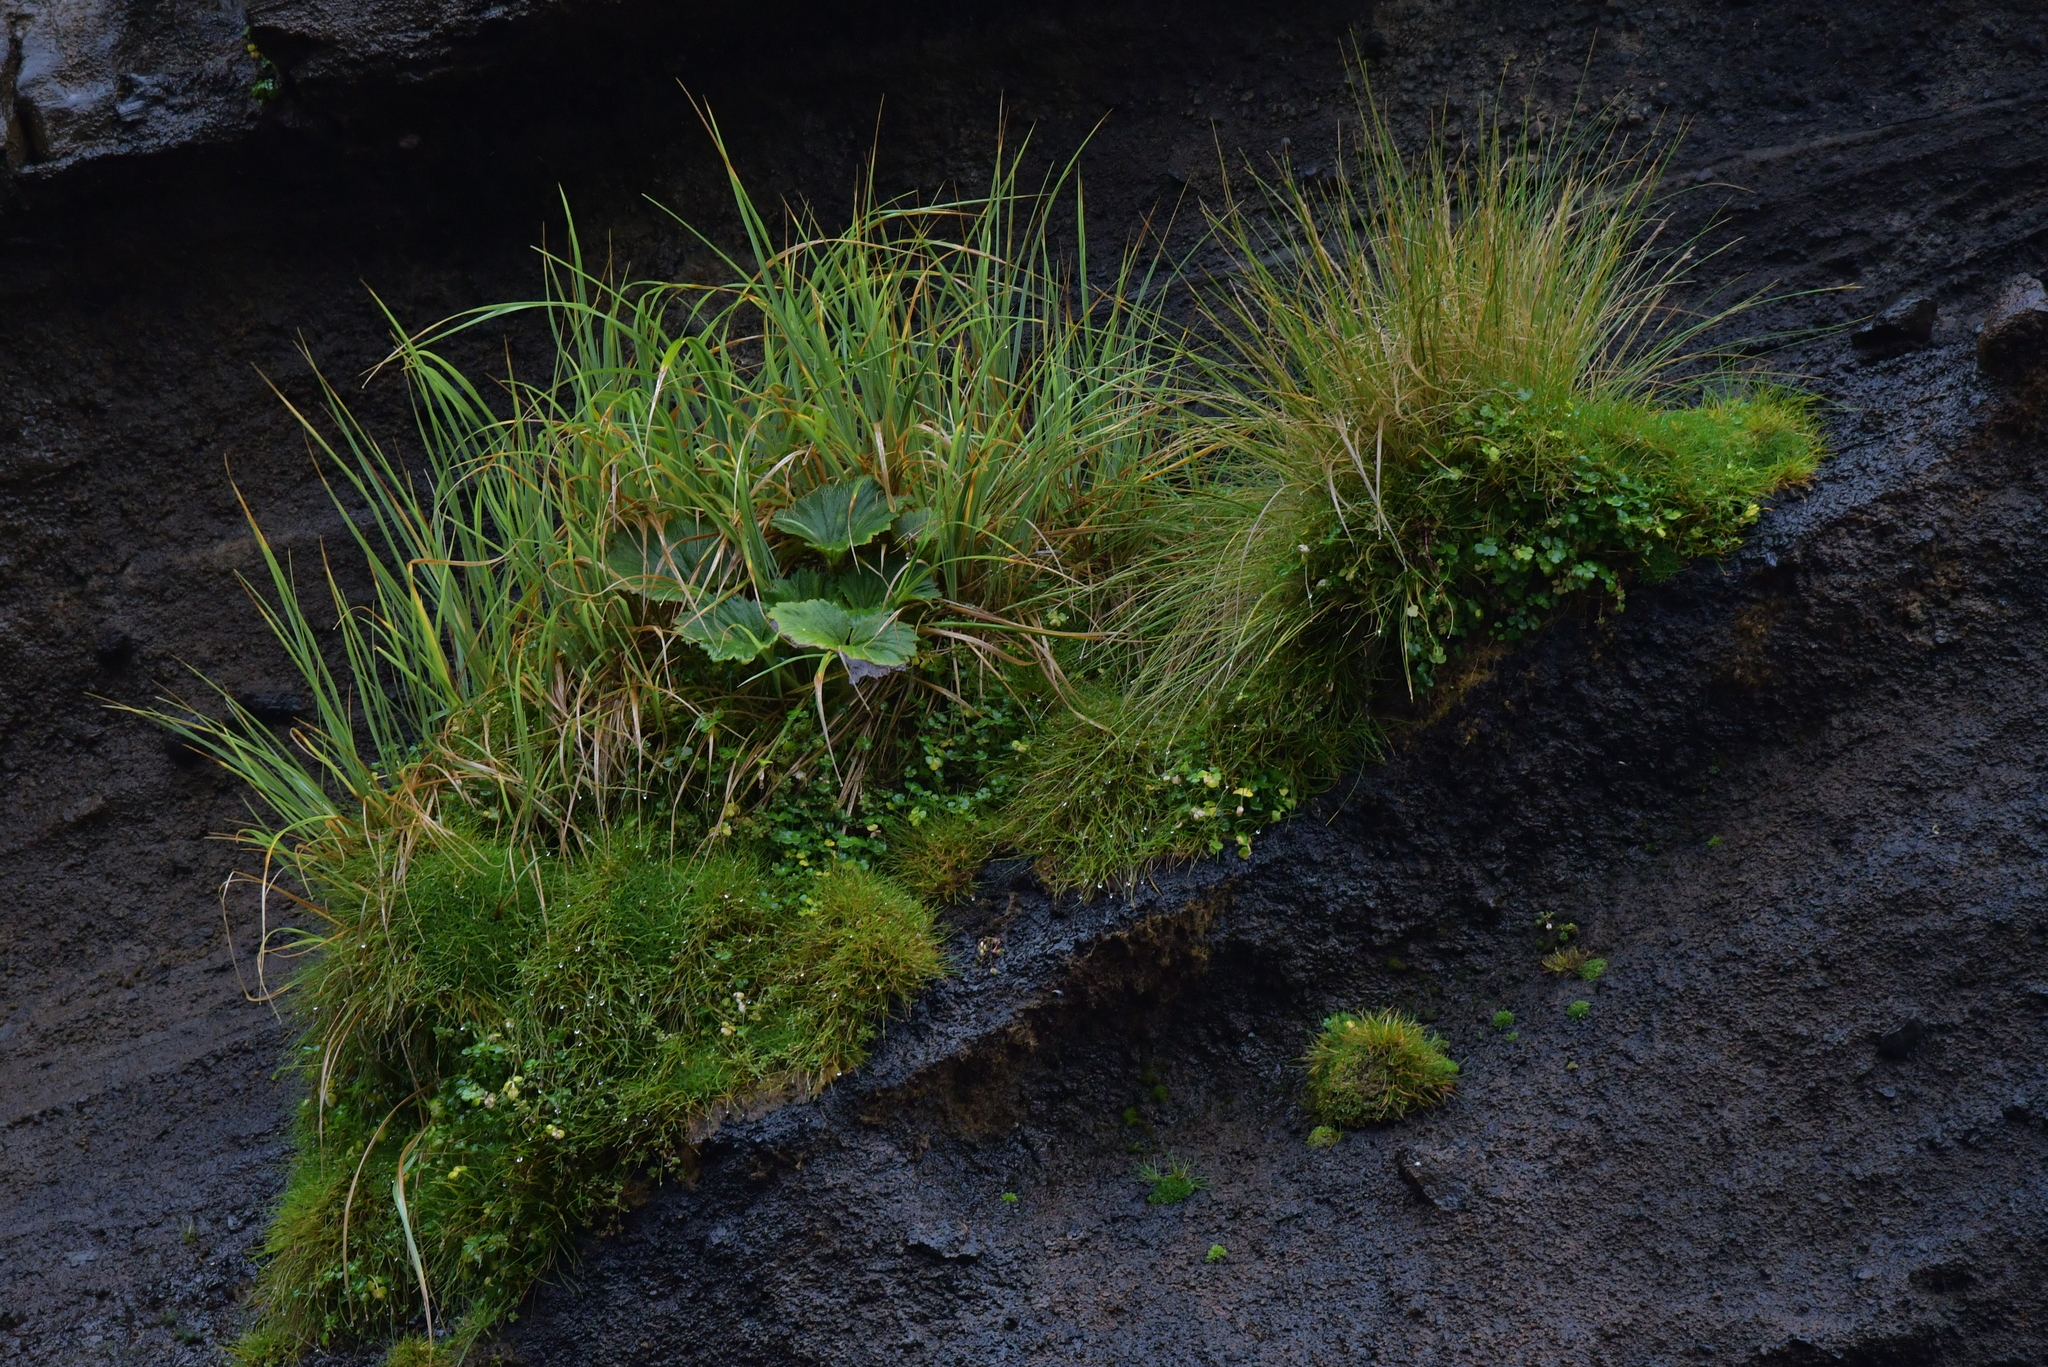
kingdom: Plantae
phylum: Tracheophyta
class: Magnoliopsida
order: Apiales
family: Apiaceae
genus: Azorella
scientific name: Azorella polaris
